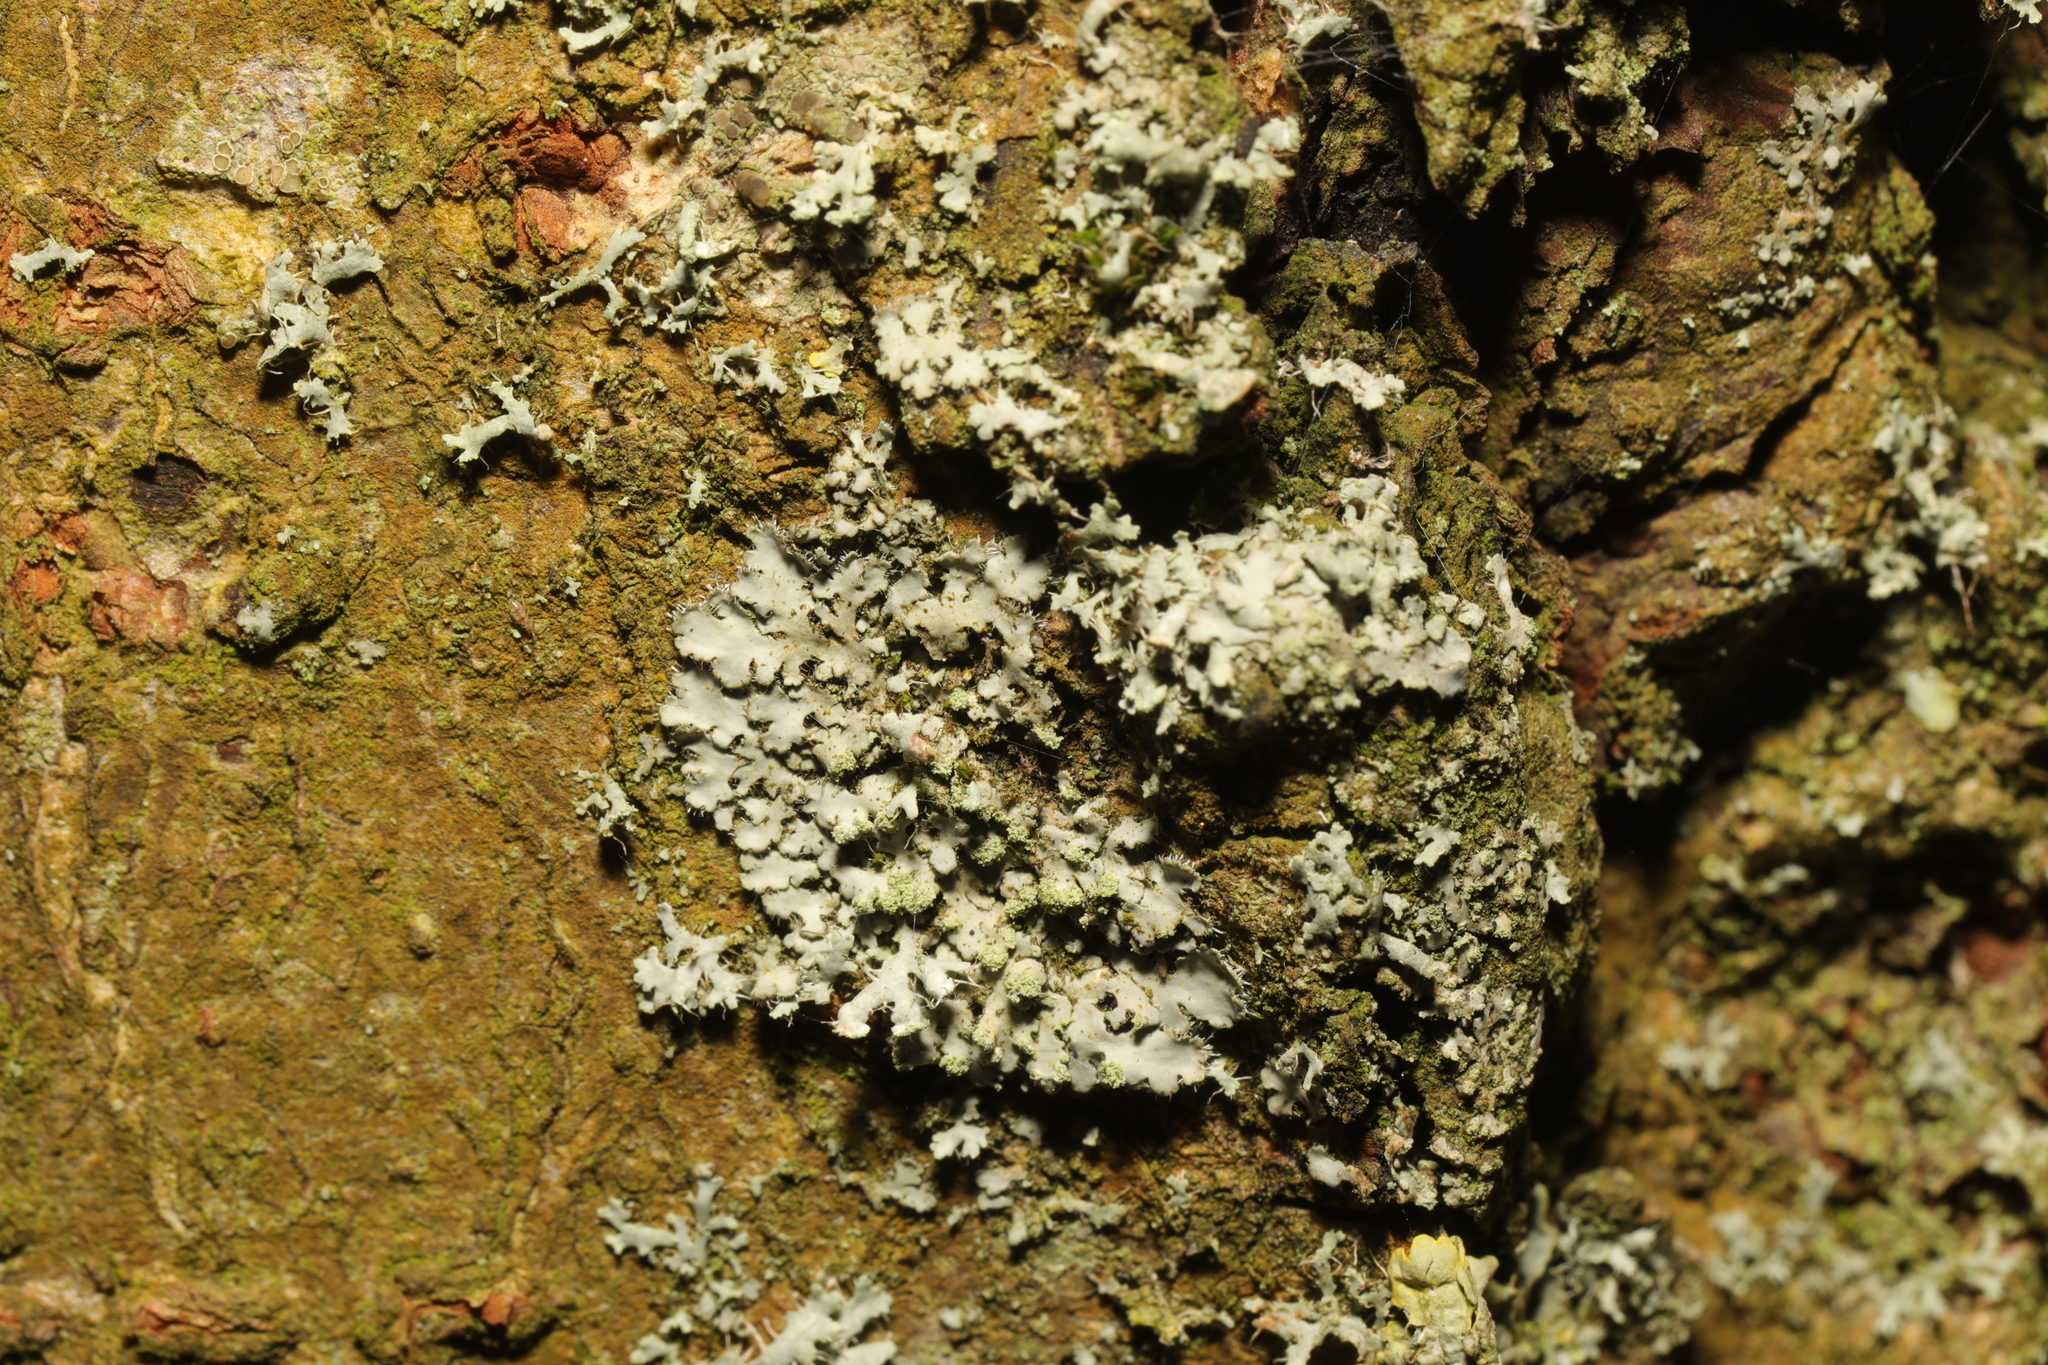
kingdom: Fungi
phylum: Ascomycota
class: Lecanoromycetes
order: Caliciales
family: Physciaceae
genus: Phaeophyscia
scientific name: Phaeophyscia orbicularis
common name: Mealy shadow lichen
